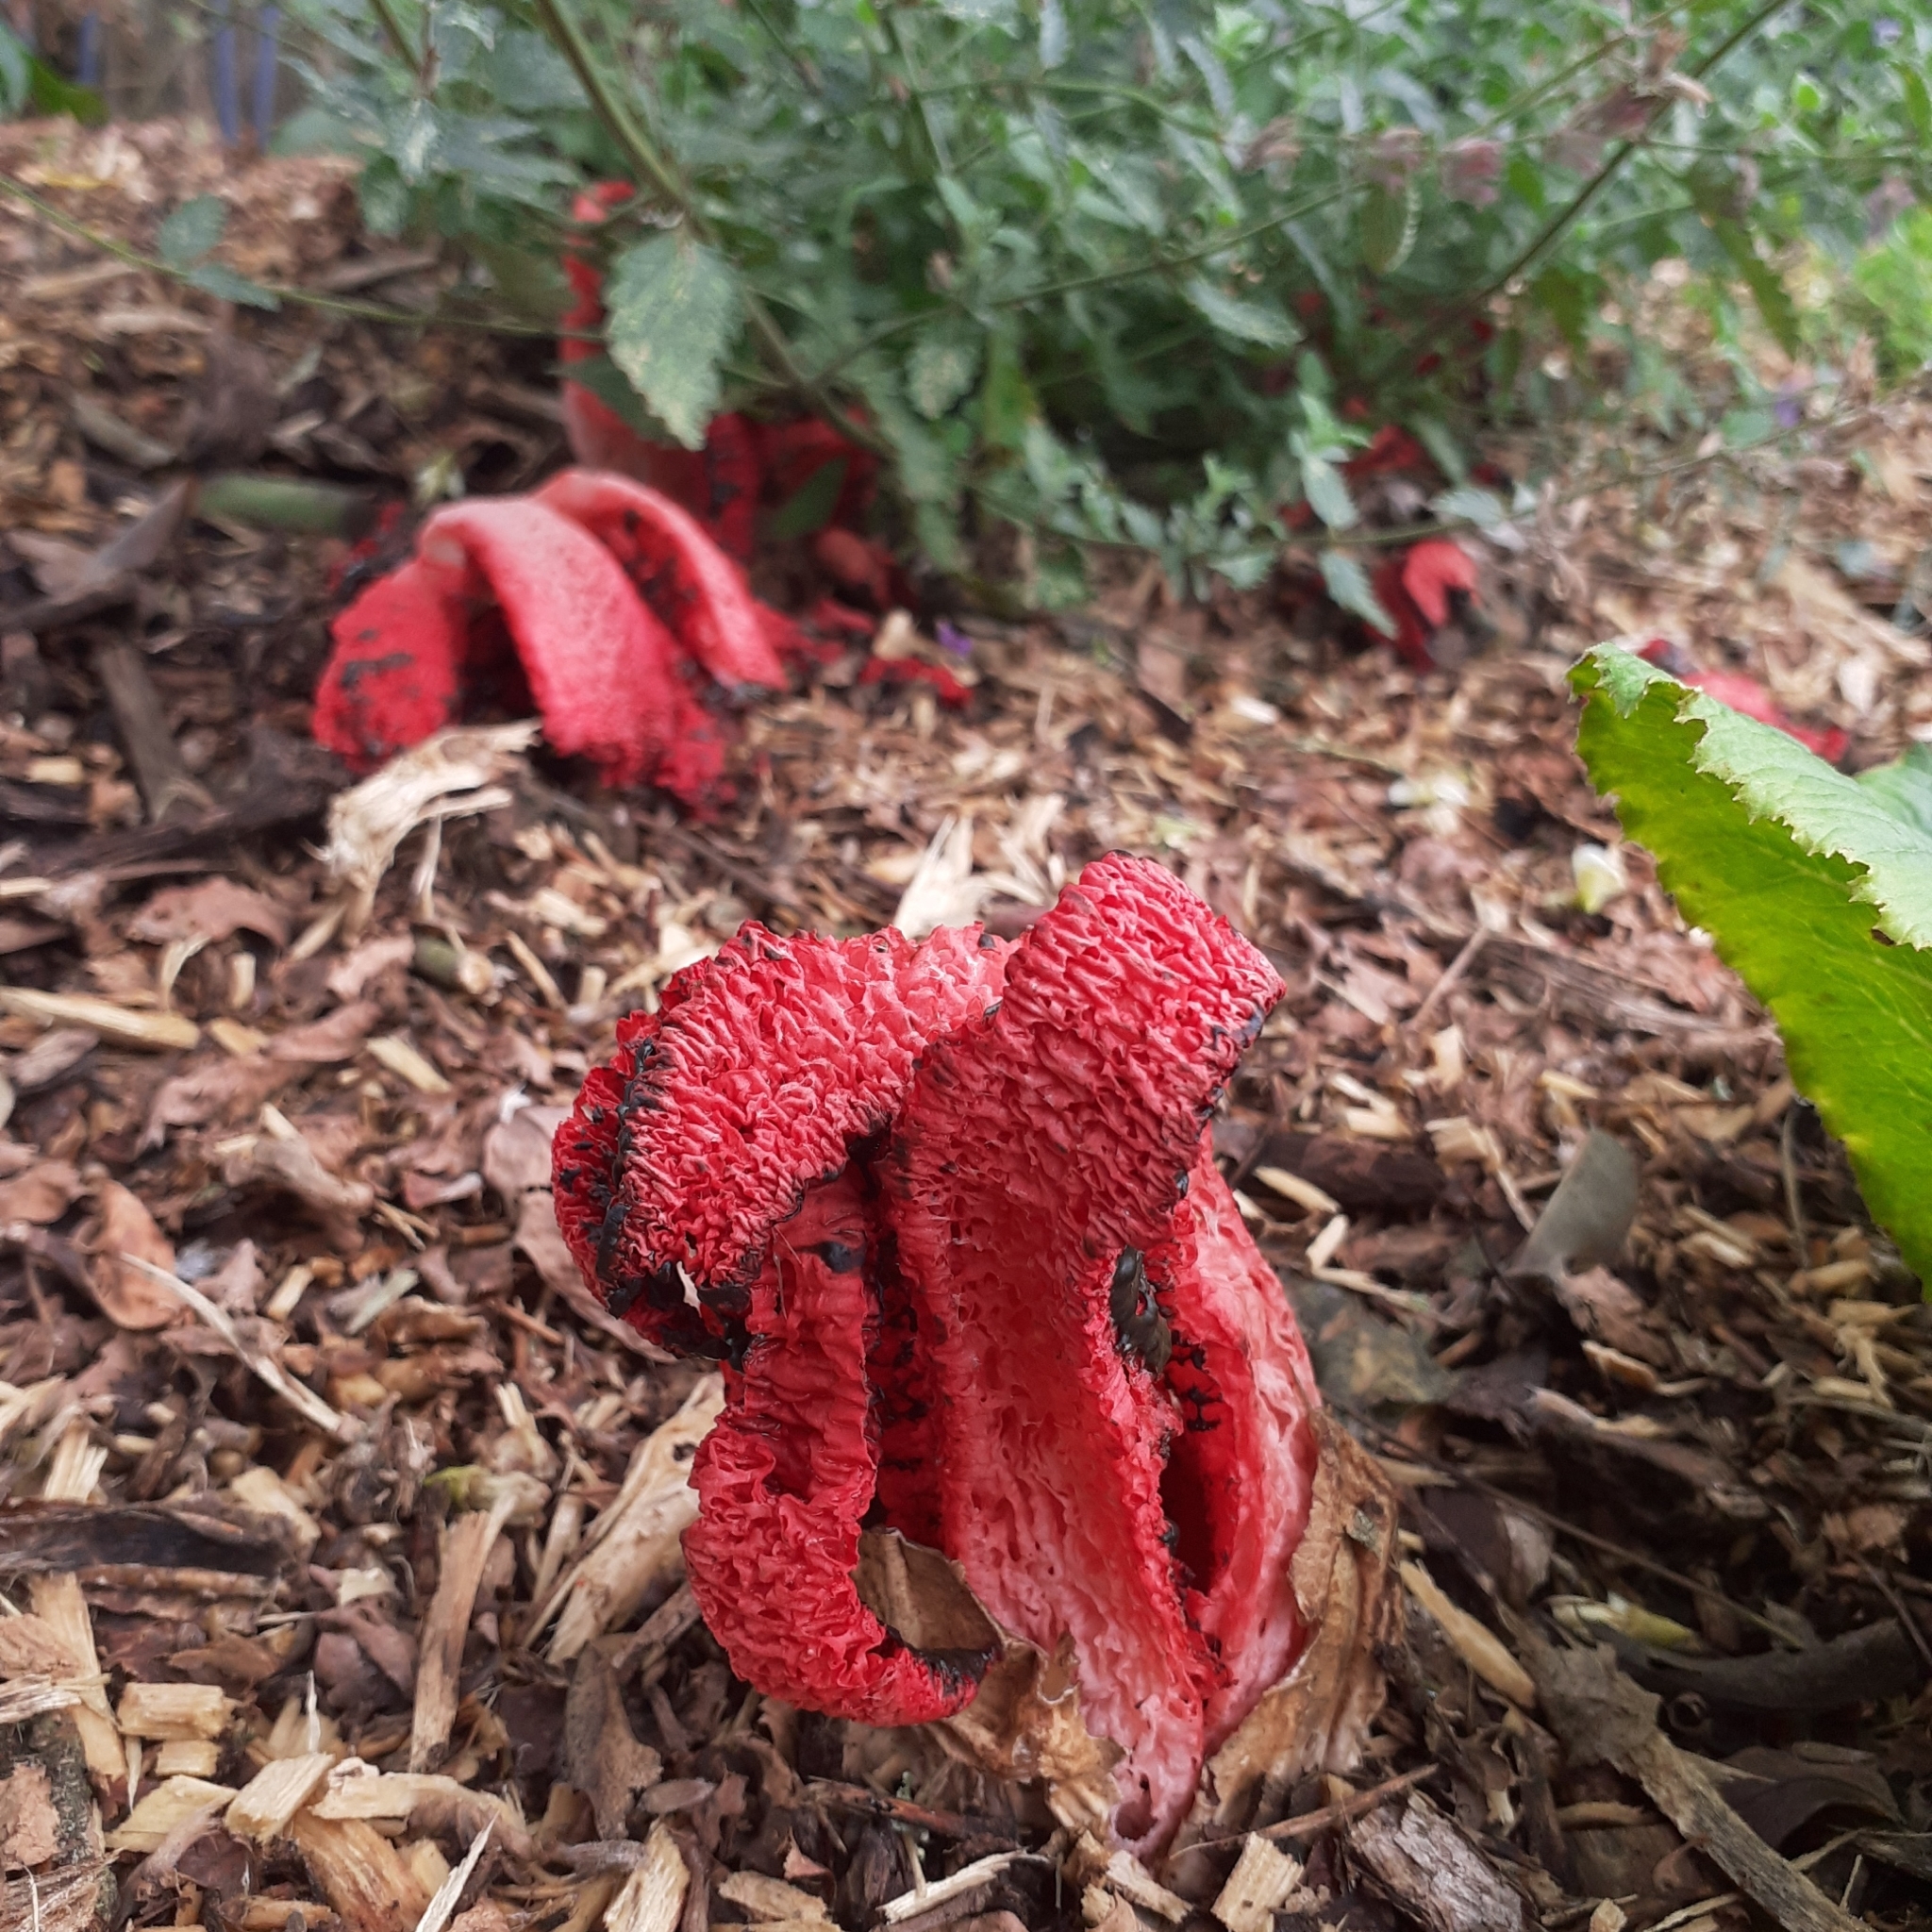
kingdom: Fungi
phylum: Basidiomycota
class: Agaricomycetes
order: Phallales
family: Phallaceae
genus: Clathrus
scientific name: Clathrus archeri
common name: Devil's fingers
